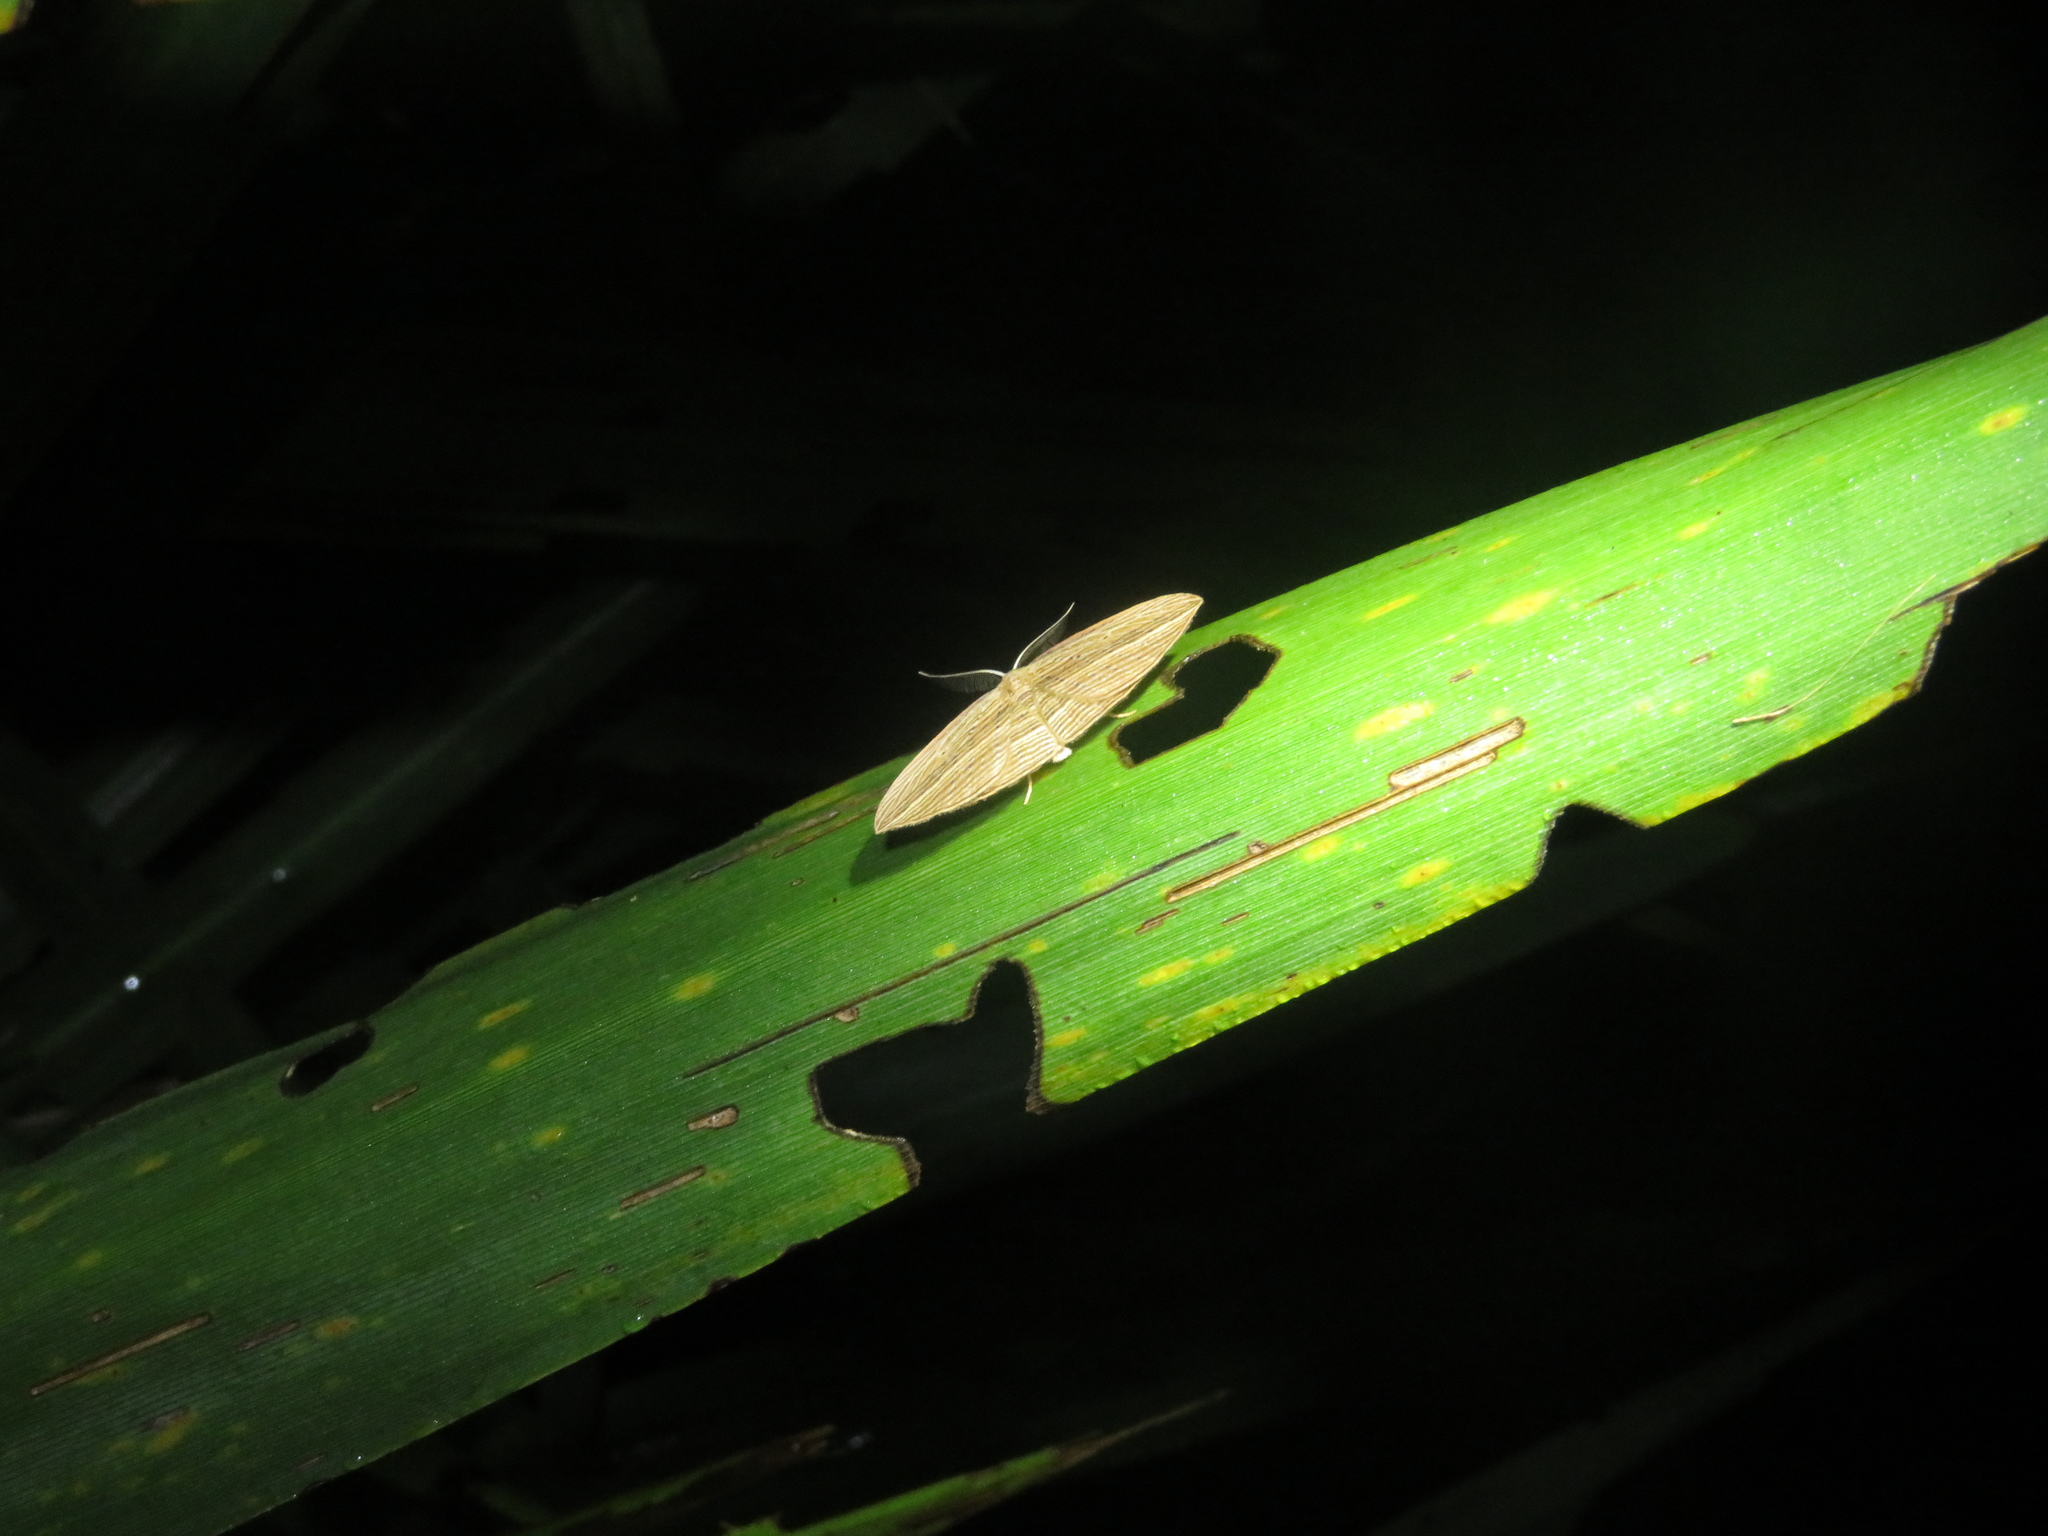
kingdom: Animalia
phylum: Arthropoda
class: Insecta
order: Lepidoptera
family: Geometridae
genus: Epiphryne
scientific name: Epiphryne verriculata
